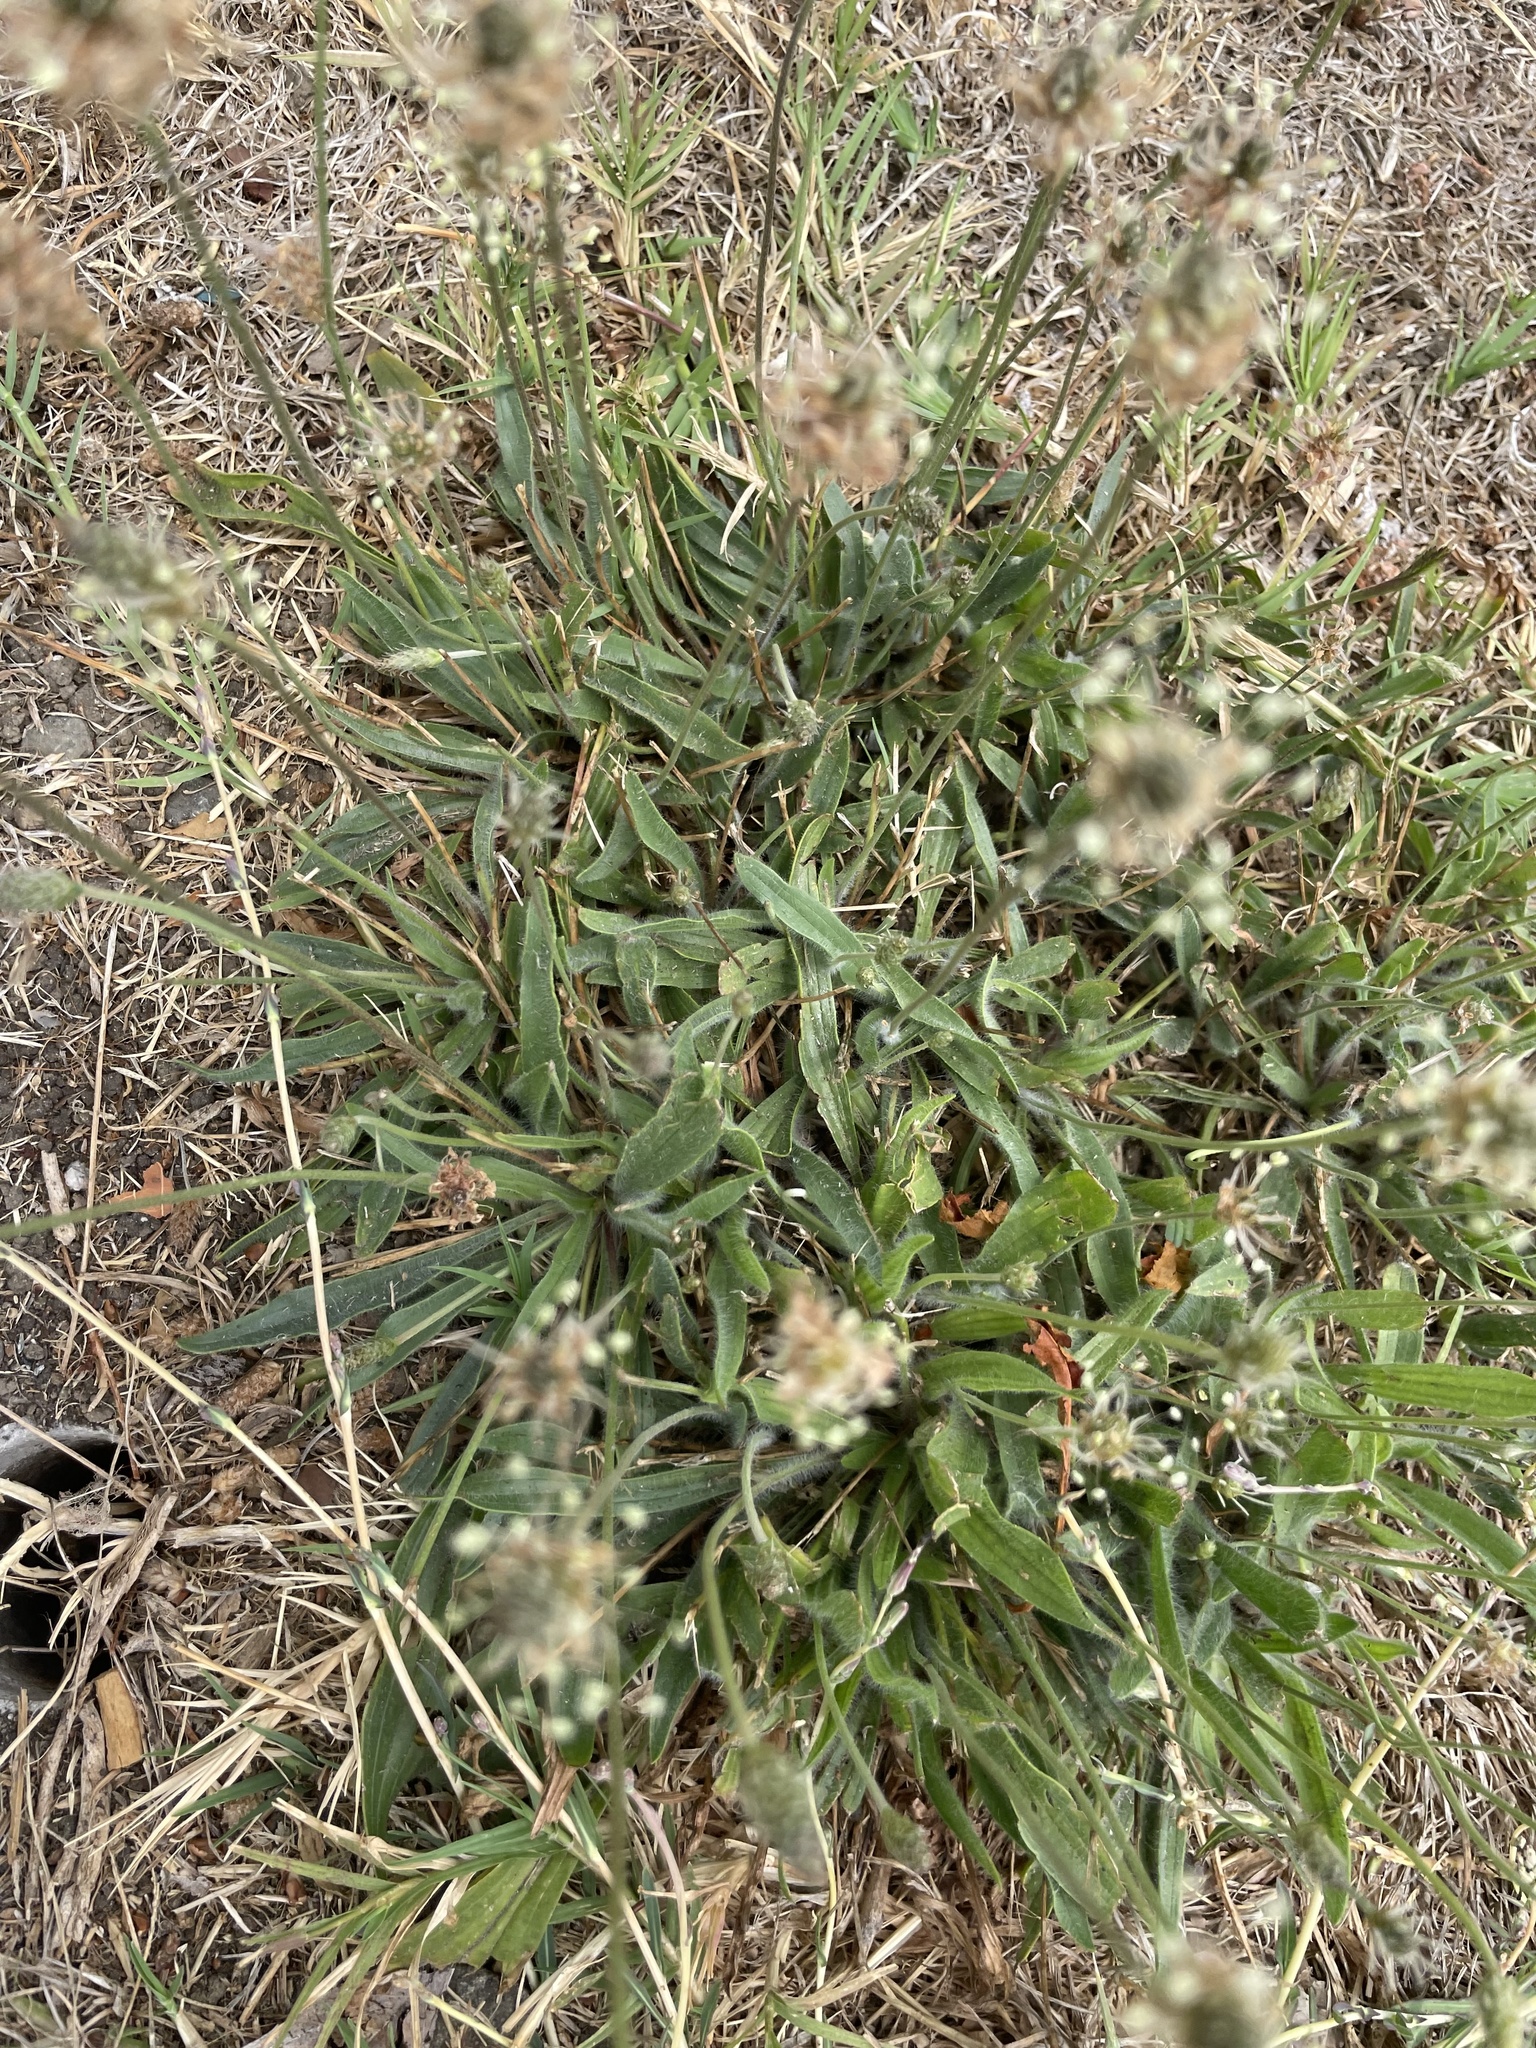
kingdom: Plantae
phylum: Tracheophyta
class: Magnoliopsida
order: Lamiales
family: Plantaginaceae
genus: Plantago
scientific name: Plantago lanceolata
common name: Ribwort plantain
